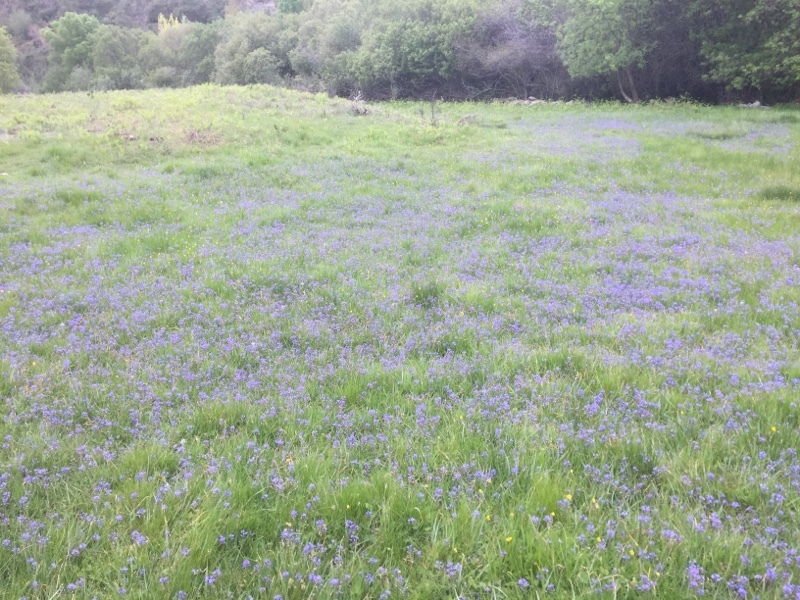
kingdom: Plantae
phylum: Tracheophyta
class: Liliopsida
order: Asparagales
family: Asparagaceae
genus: Scilla
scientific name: Scilla verna
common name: Spring squill
